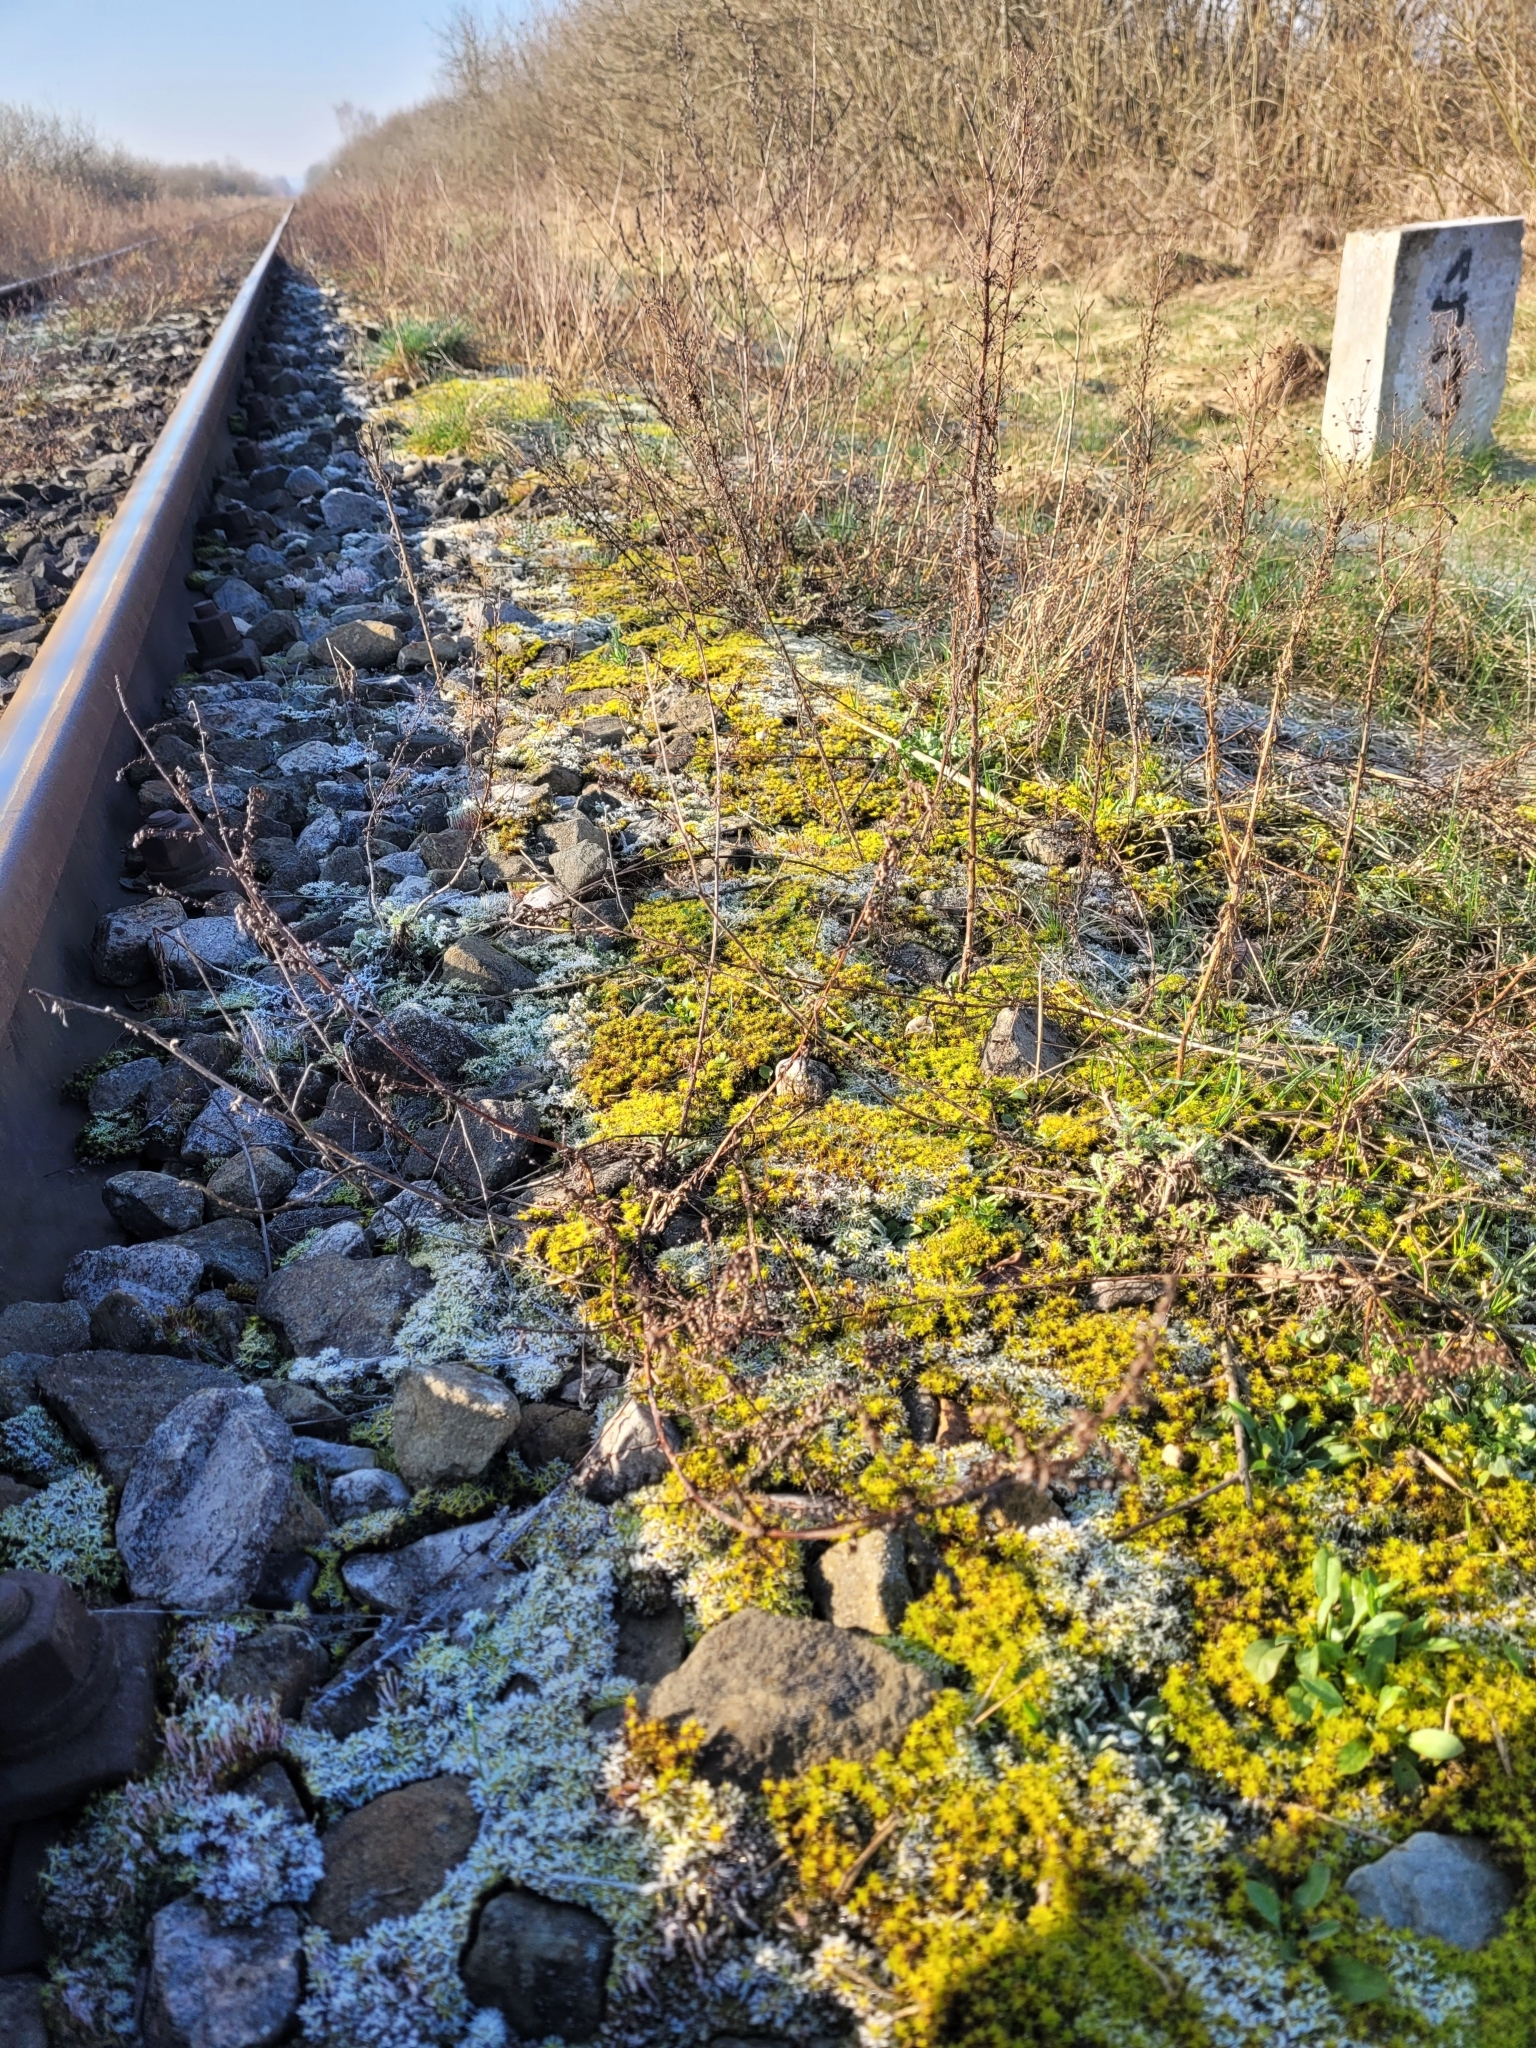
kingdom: Fungi
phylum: Basidiomycota
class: Agaricomycetes
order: Agaricales
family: Agaricaceae
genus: Tulostoma
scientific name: Tulostoma brumale
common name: Winter stalk puffball
